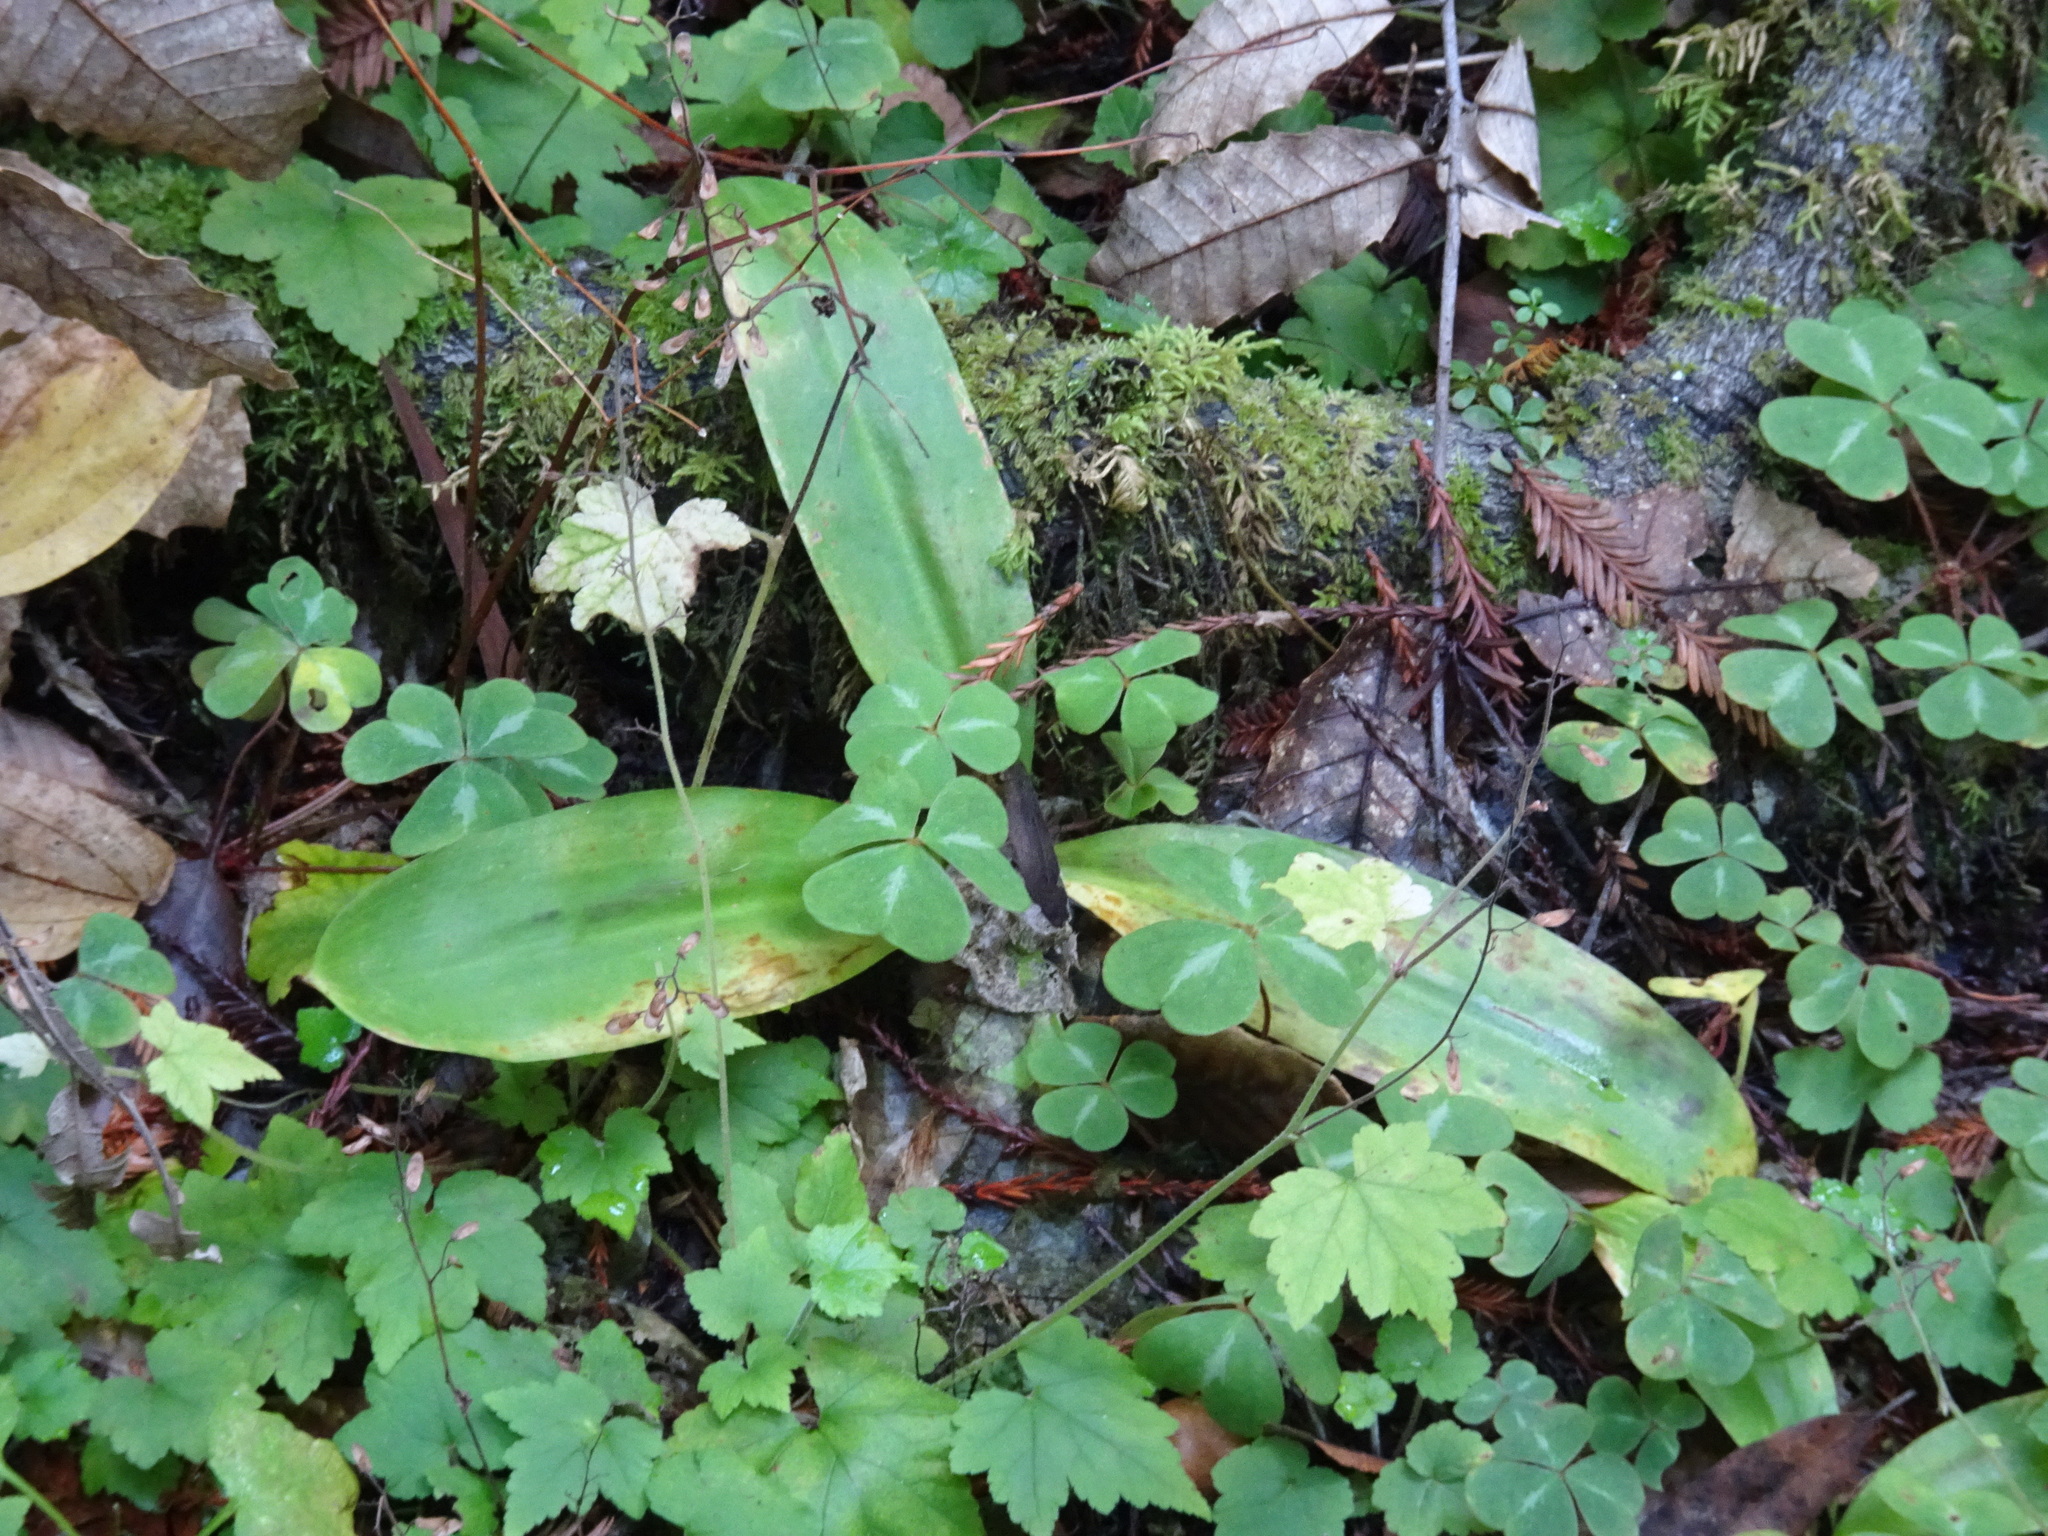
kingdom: Plantae
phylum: Tracheophyta
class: Liliopsida
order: Liliales
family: Liliaceae
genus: Clintonia
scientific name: Clintonia andrewsiana
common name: Red clintonia
